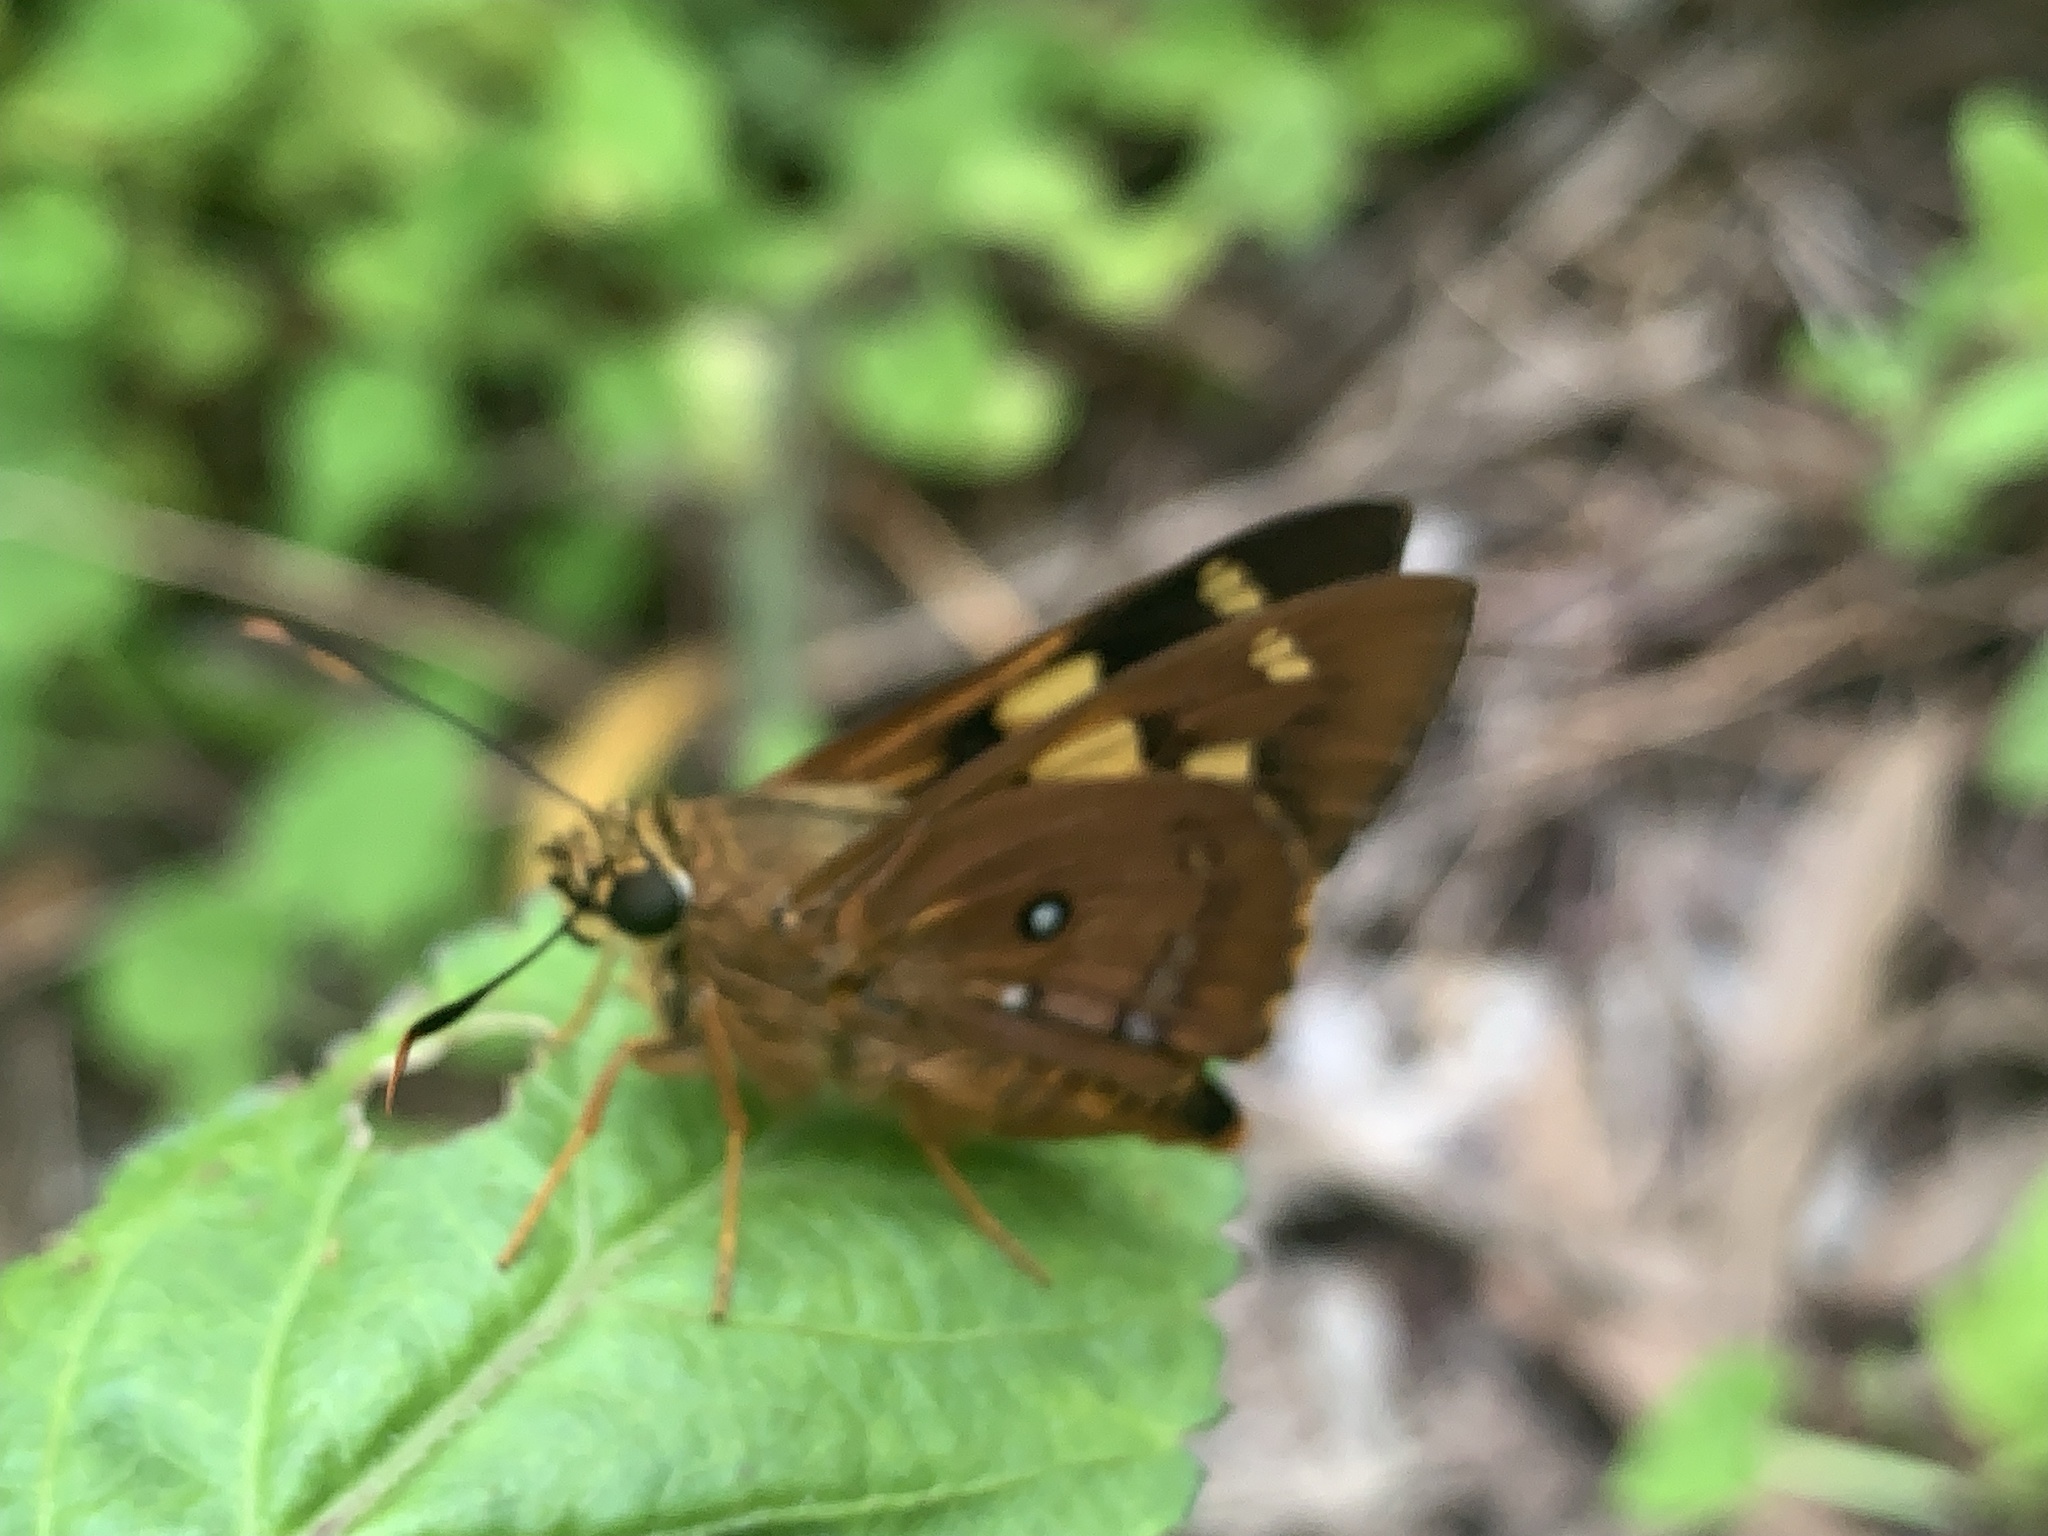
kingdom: Animalia
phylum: Arthropoda
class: Insecta
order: Lepidoptera
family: Hesperiidae
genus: Trapezites
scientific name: Trapezites symmomus
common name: Splendid ochre
